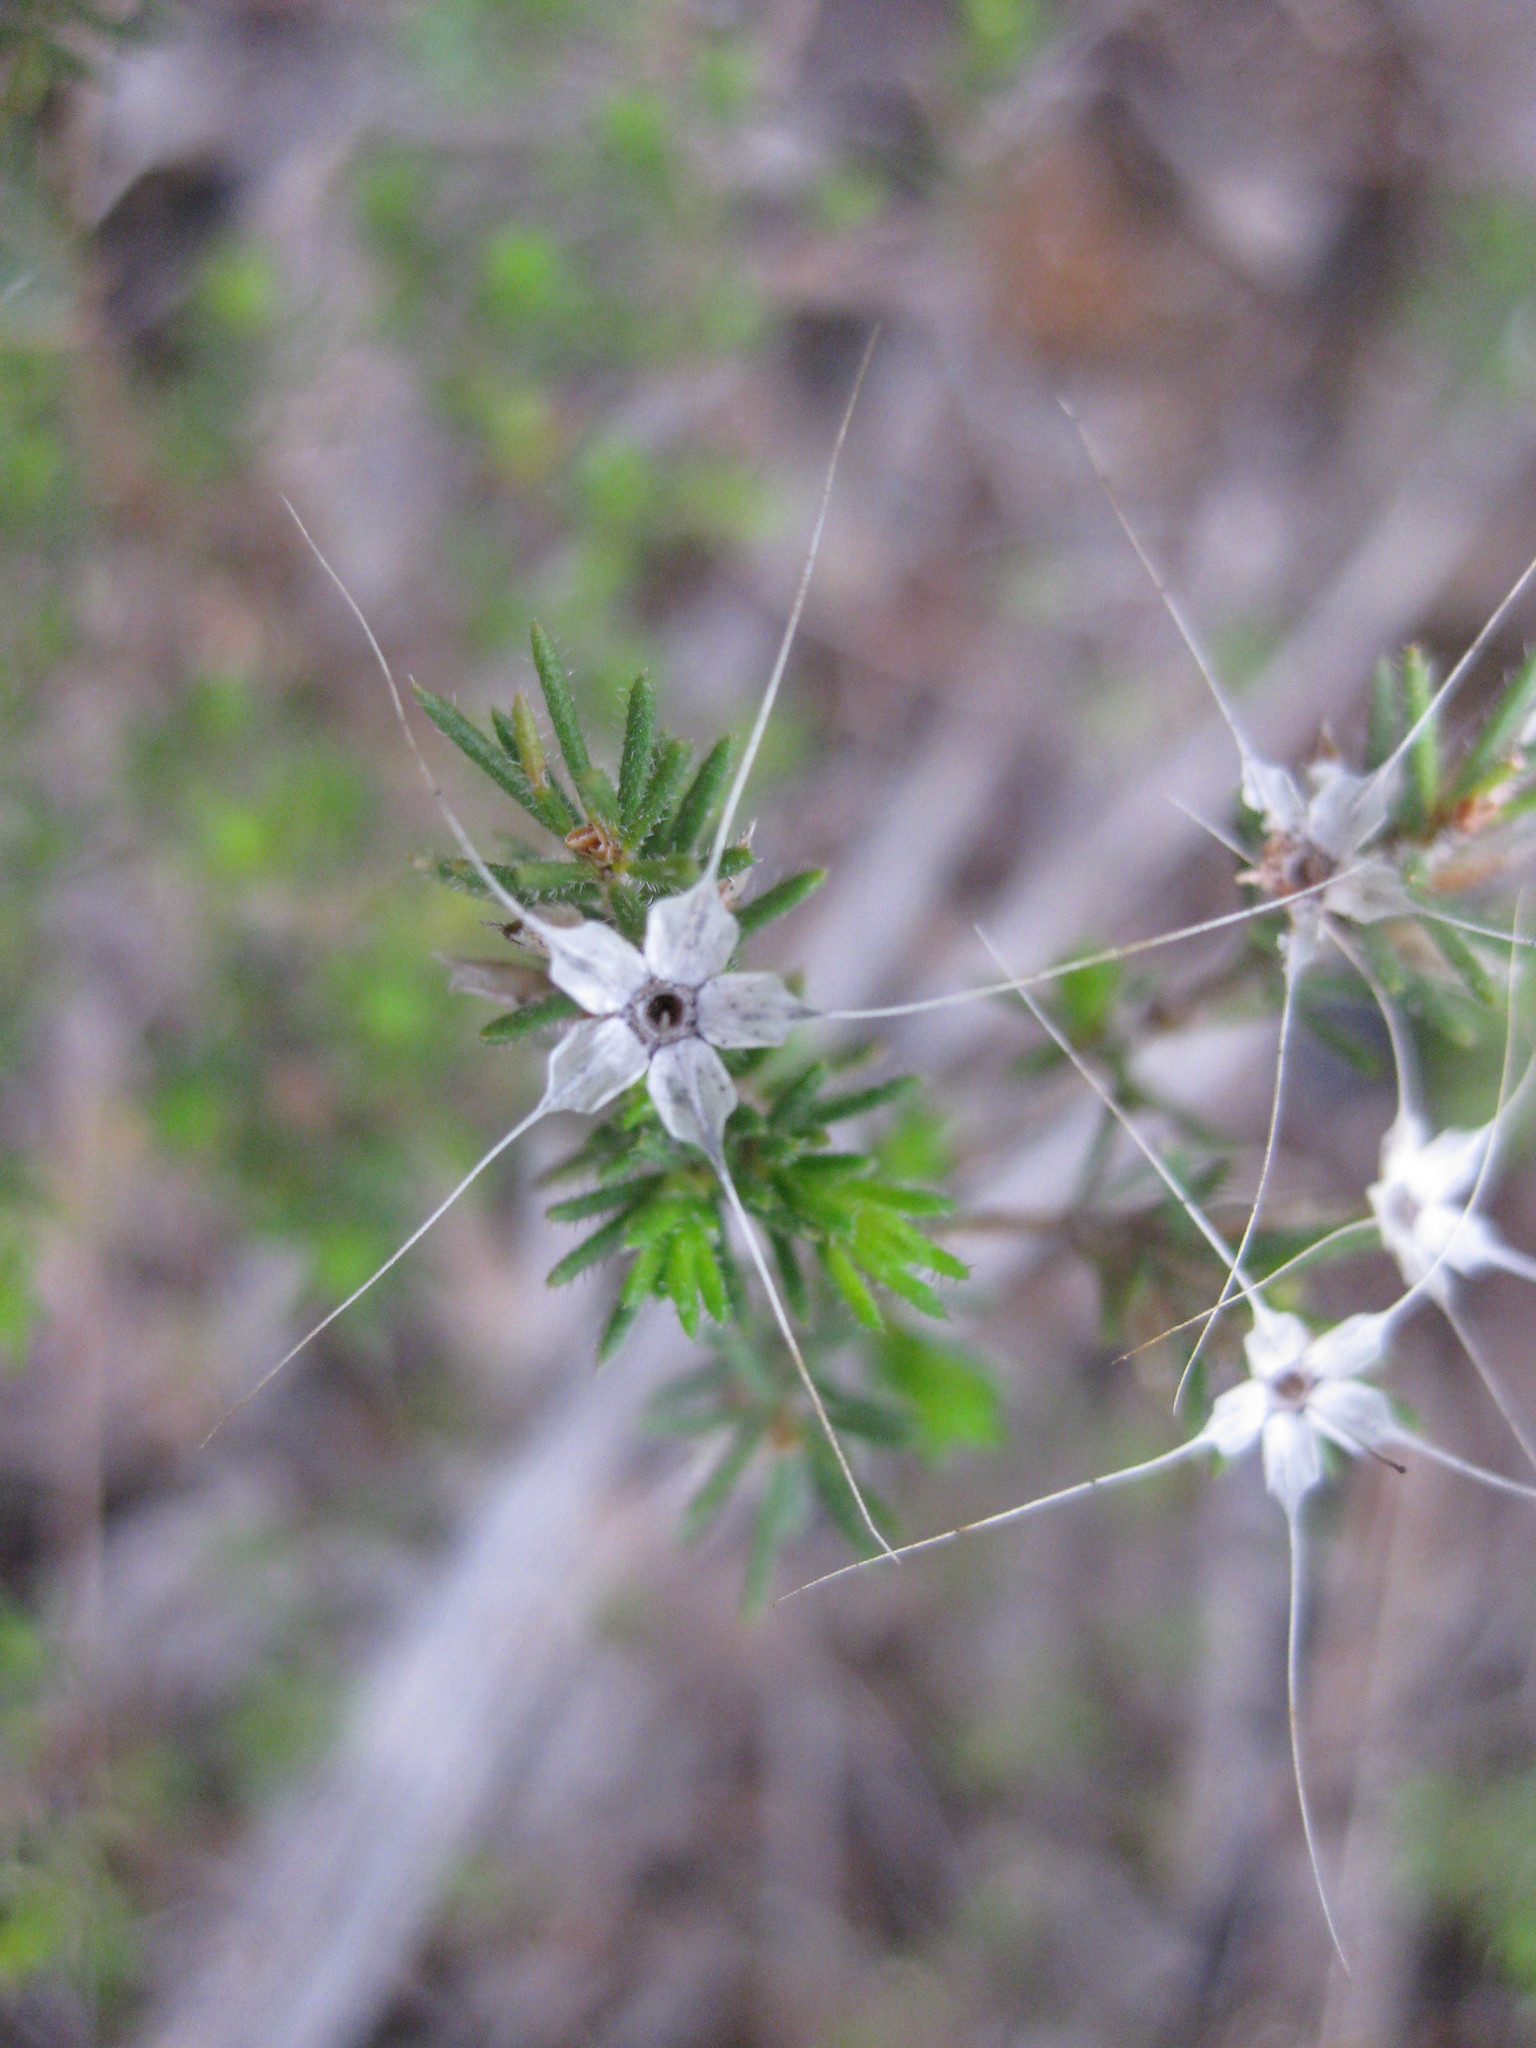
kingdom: Plantae
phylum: Tracheophyta
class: Magnoliopsida
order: Myrtales
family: Myrtaceae
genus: Calytrix
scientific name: Calytrix tetragona
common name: Common fringe myrtle
